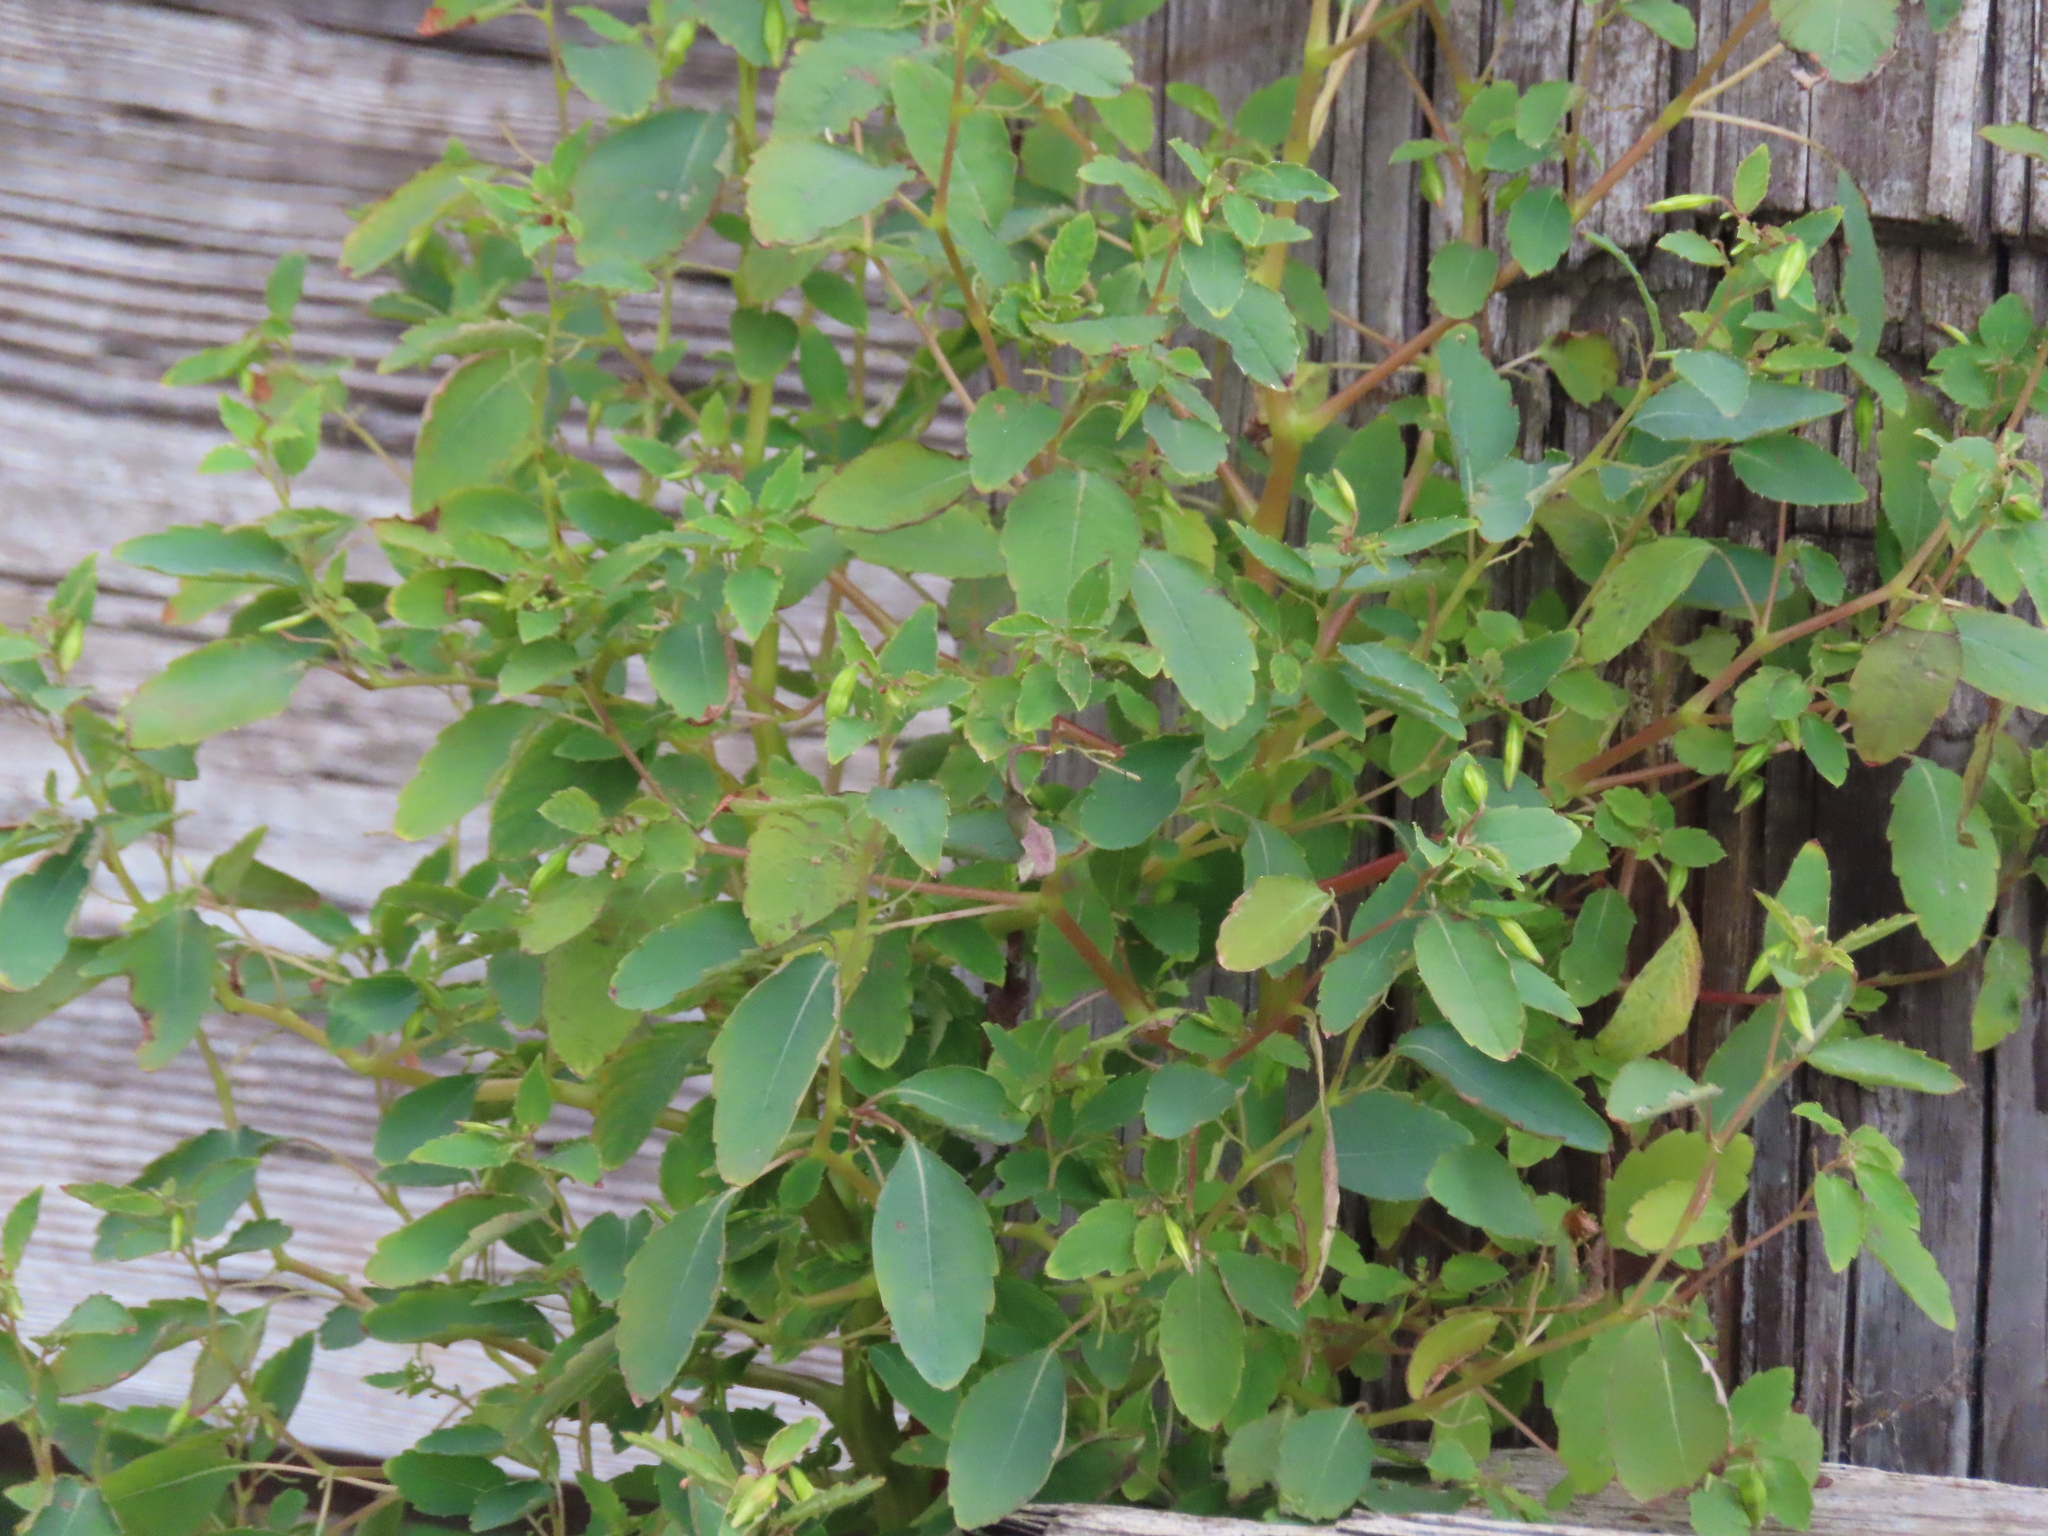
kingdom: Plantae
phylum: Tracheophyta
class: Magnoliopsida
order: Ericales
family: Balsaminaceae
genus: Impatiens
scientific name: Impatiens capensis
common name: Orange balsam
